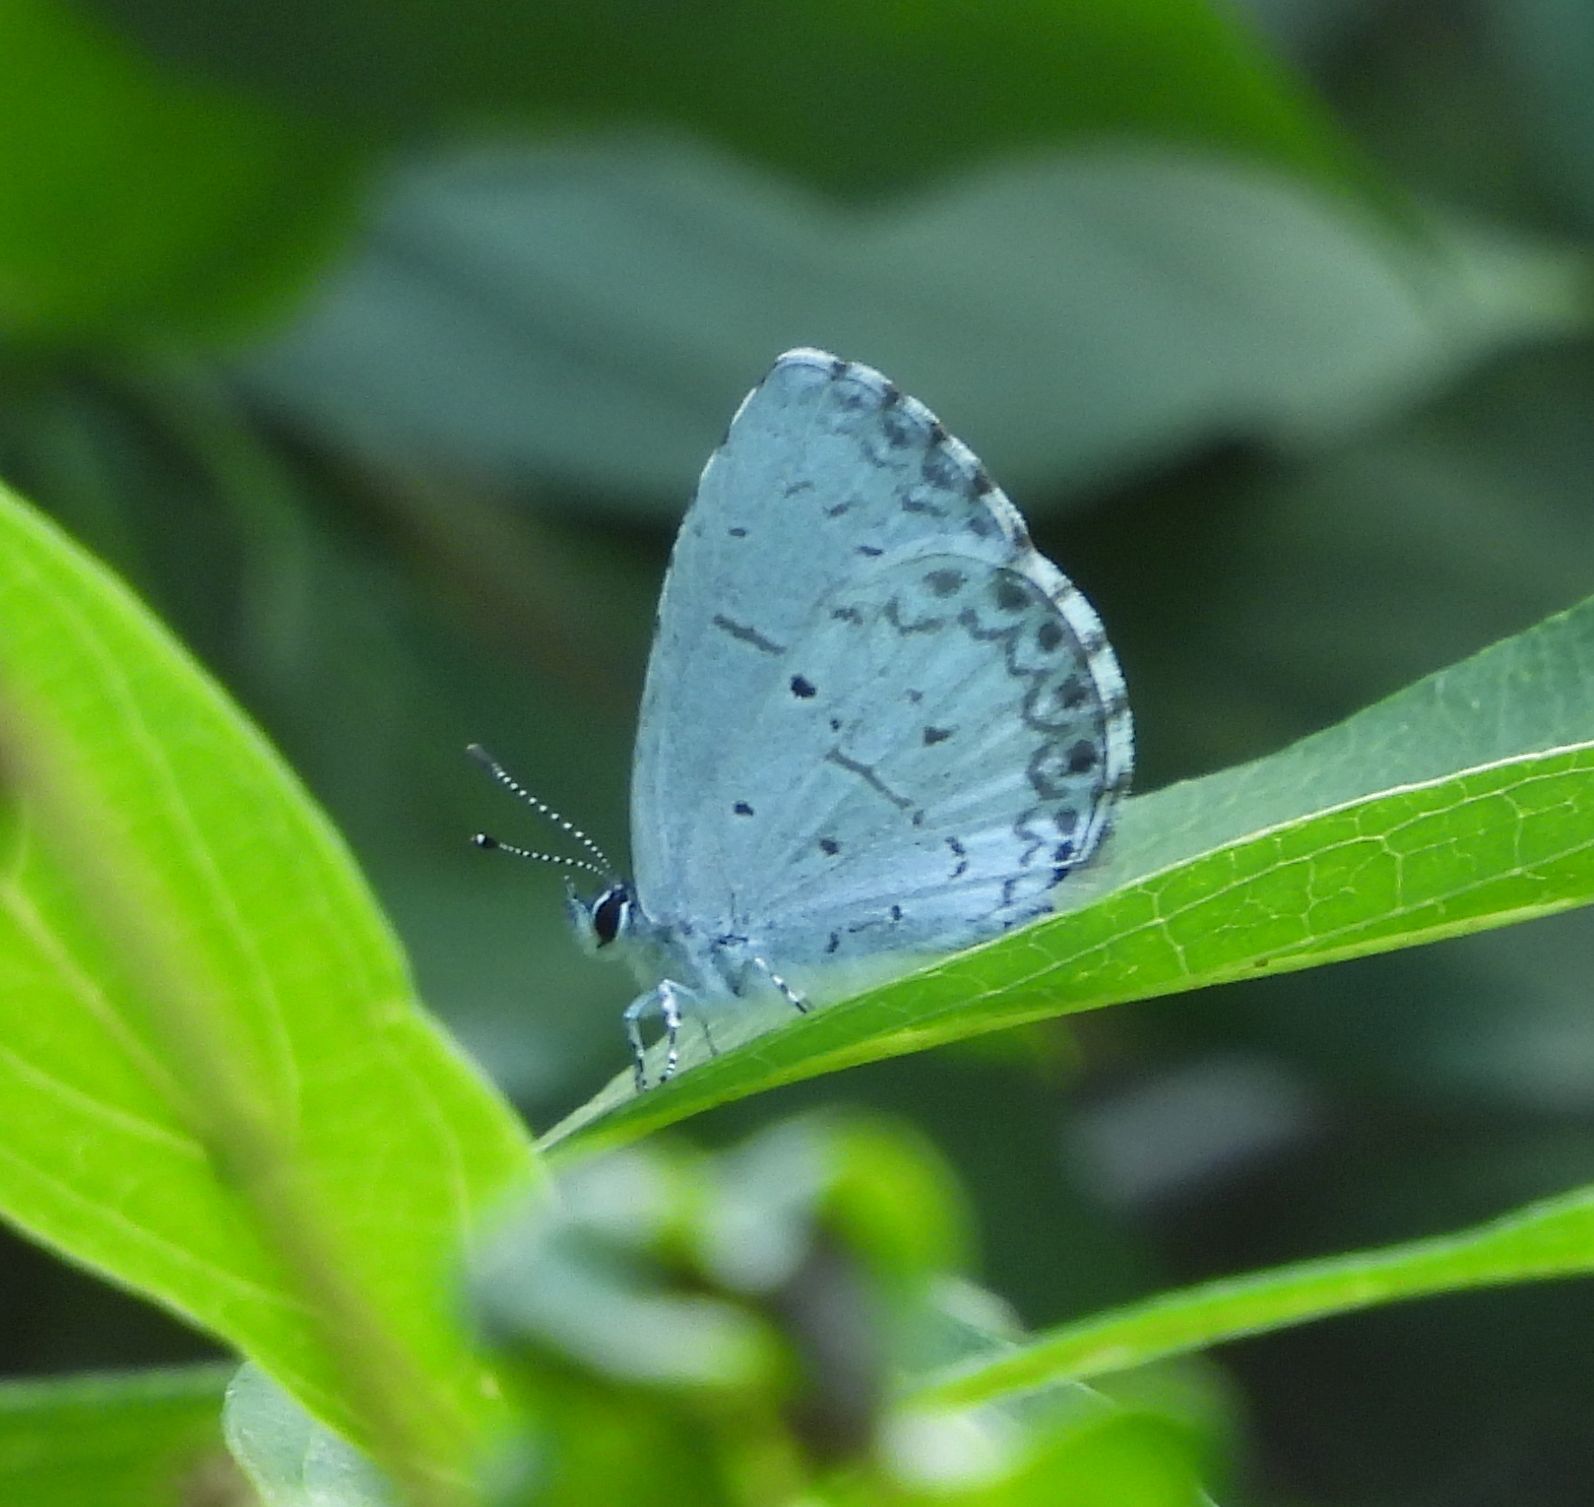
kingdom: Animalia
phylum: Arthropoda
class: Insecta
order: Lepidoptera
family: Lycaenidae
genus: Celastrina
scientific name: Celastrina lucia
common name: Lucia azure
